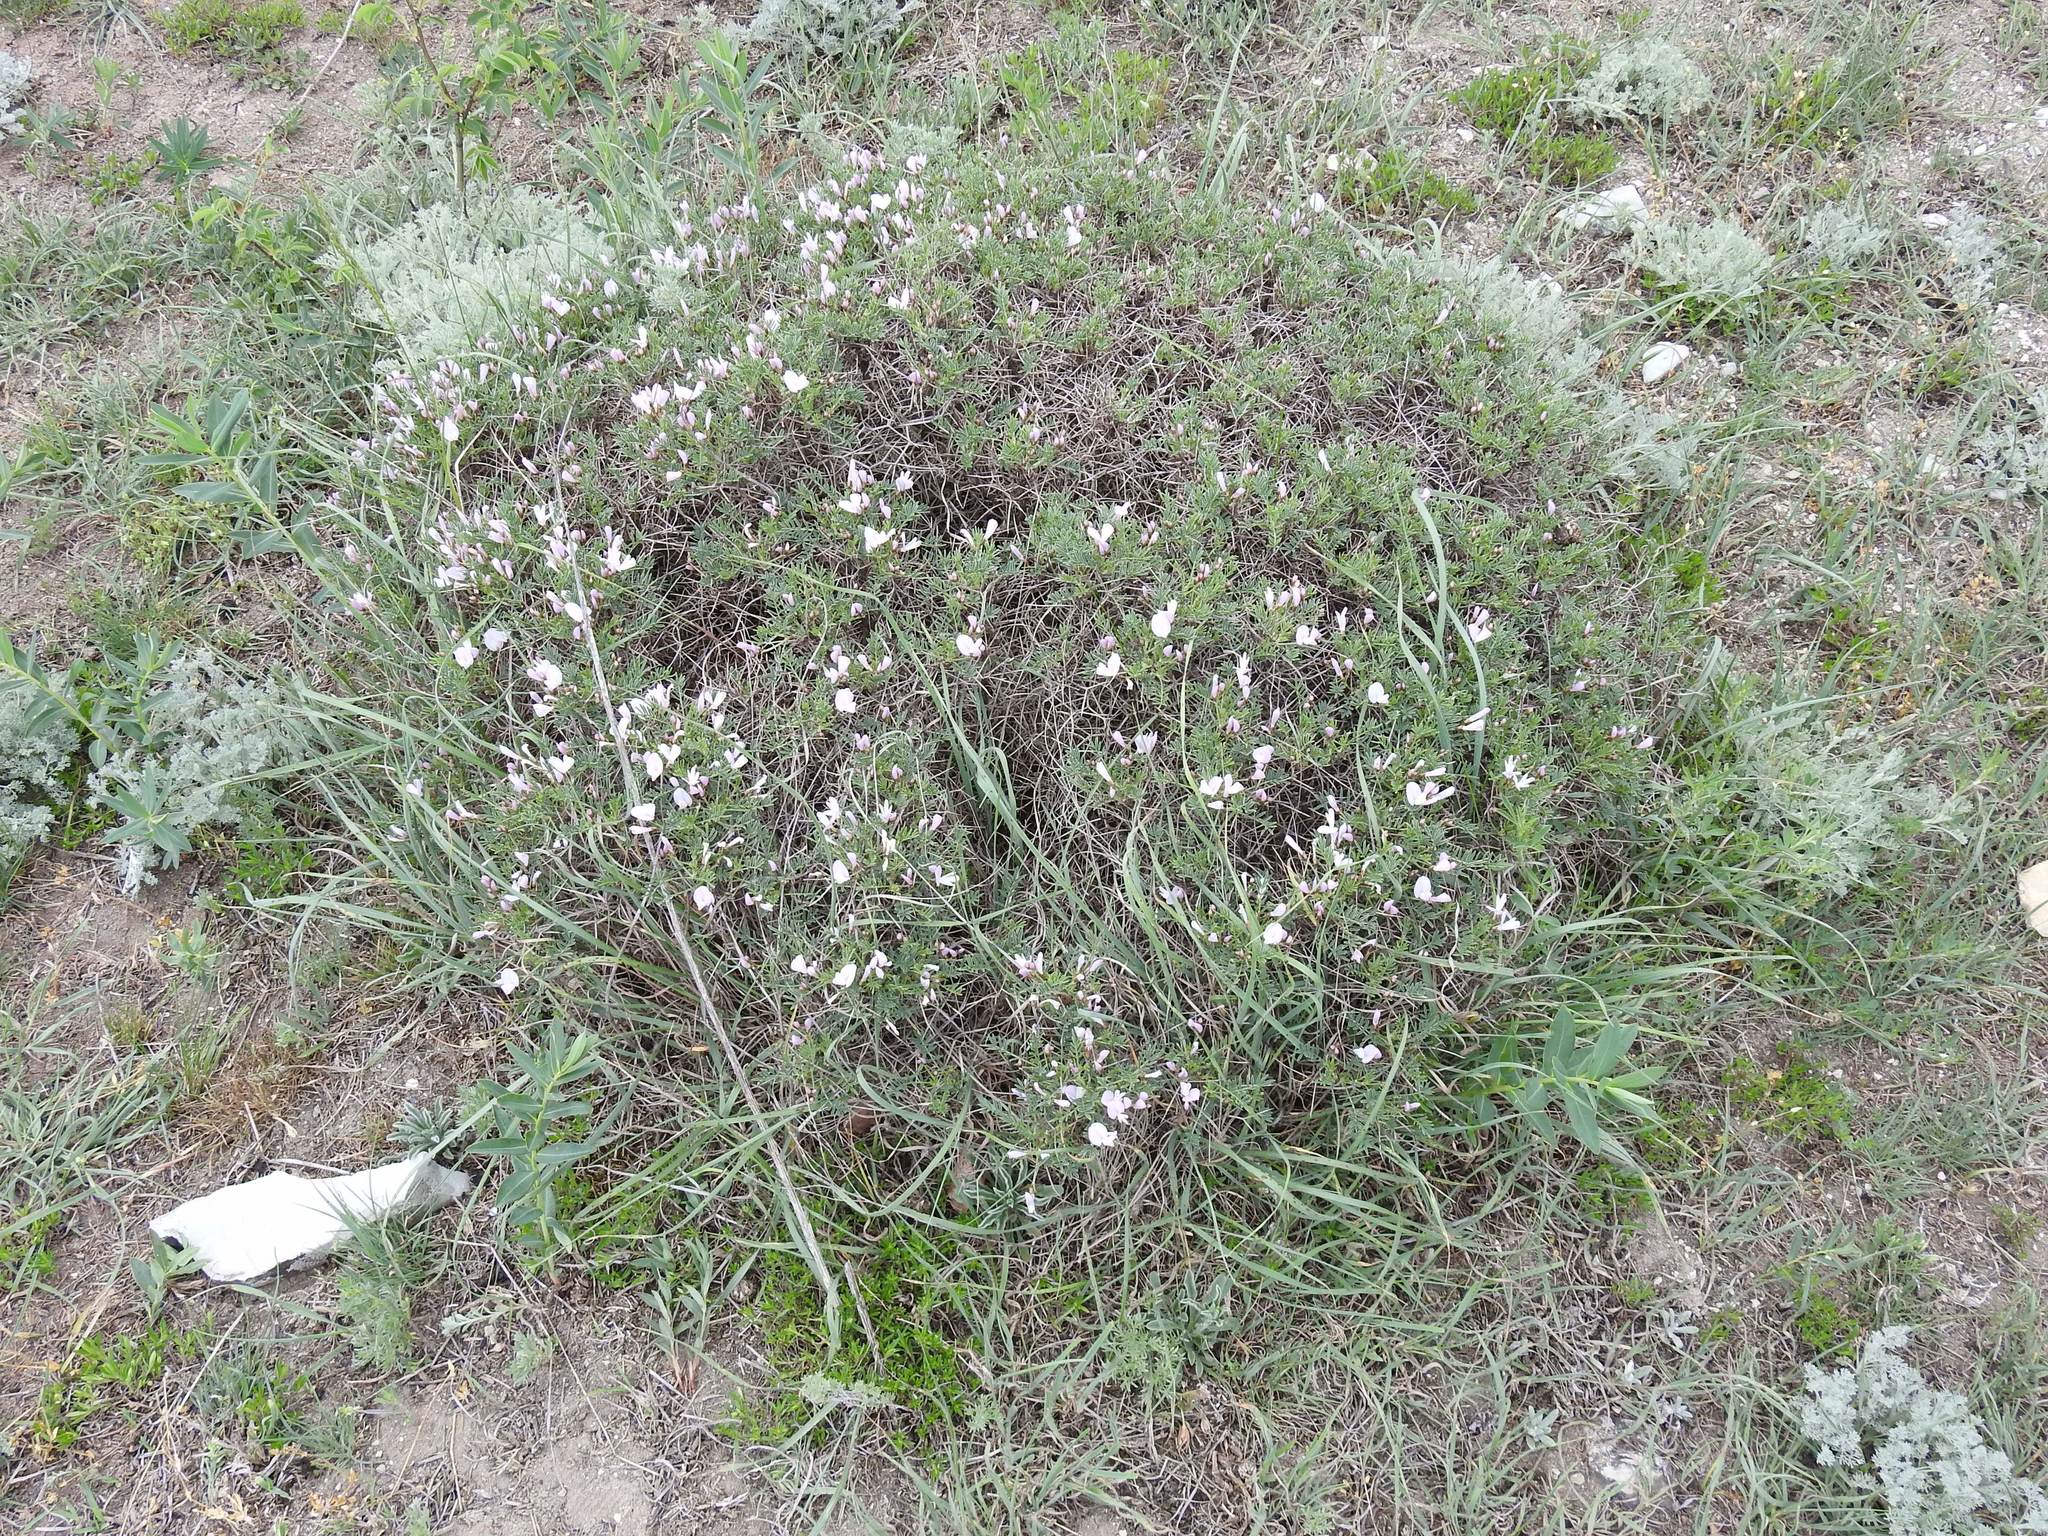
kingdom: Plantae
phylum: Tracheophyta
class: Magnoliopsida
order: Fabales
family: Fabaceae
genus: Onobrychis
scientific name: Onobrychis cornuta
